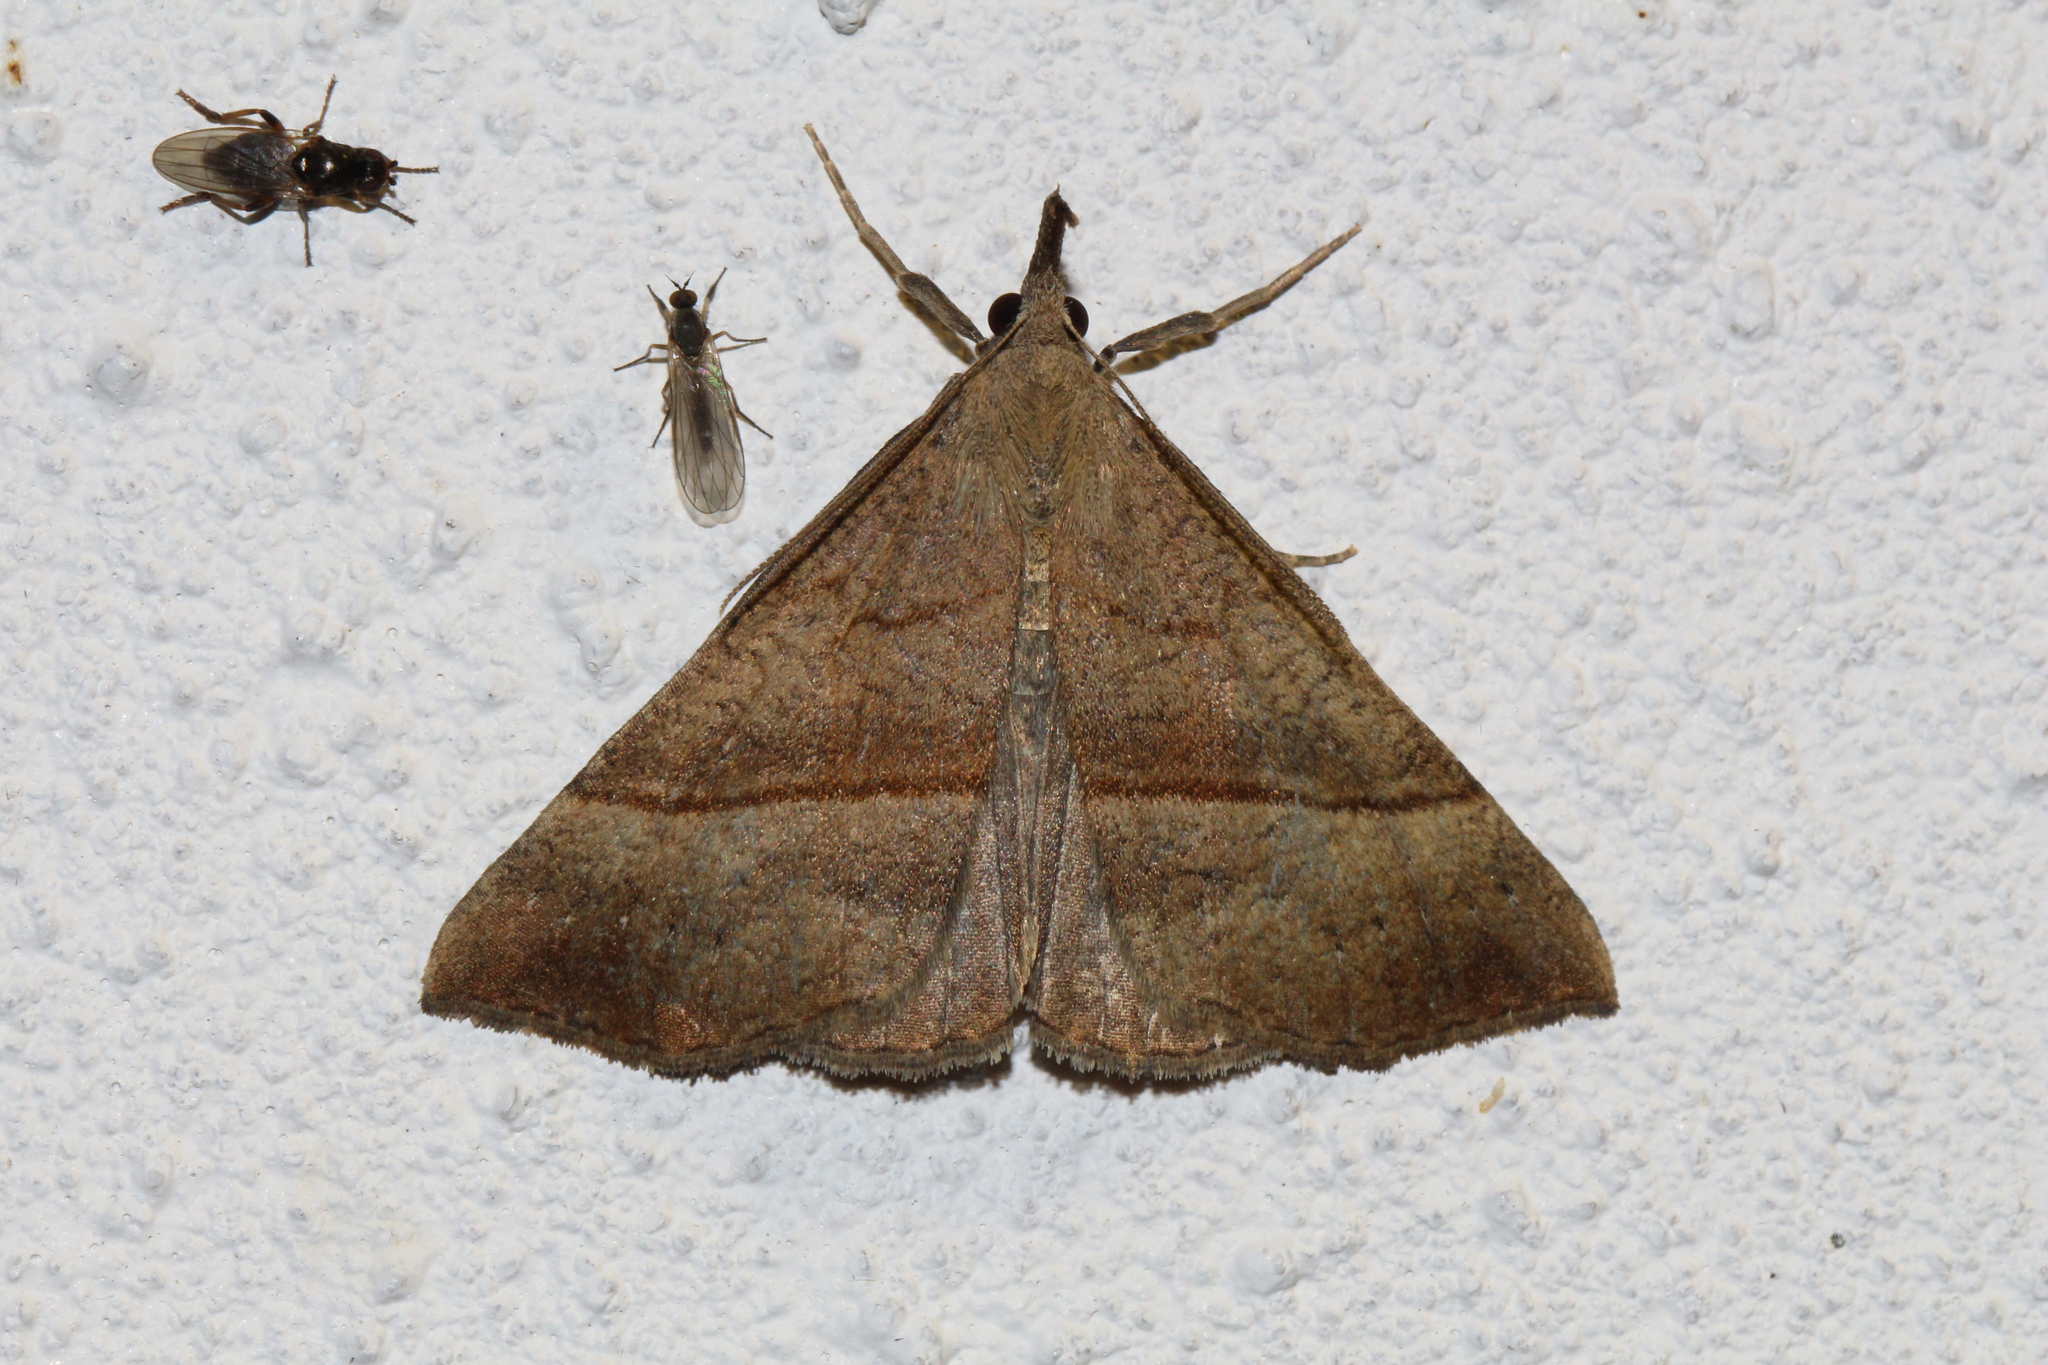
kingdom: Animalia
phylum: Arthropoda
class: Insecta
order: Lepidoptera
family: Erebidae
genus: Hypena
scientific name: Hypena proboscidalis
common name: Snout
